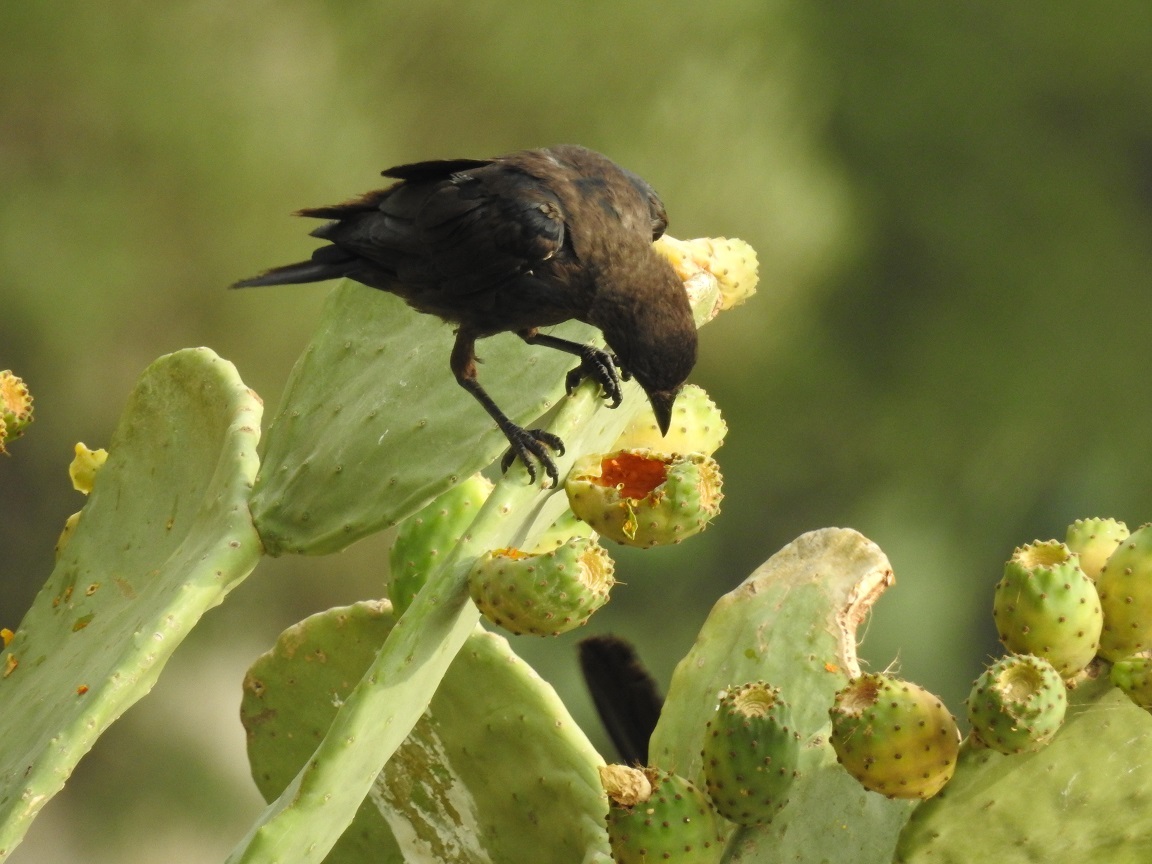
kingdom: Animalia
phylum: Chordata
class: Aves
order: Passeriformes
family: Corvidae
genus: Coloeus
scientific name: Coloeus monedula
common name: Western jackdaw
